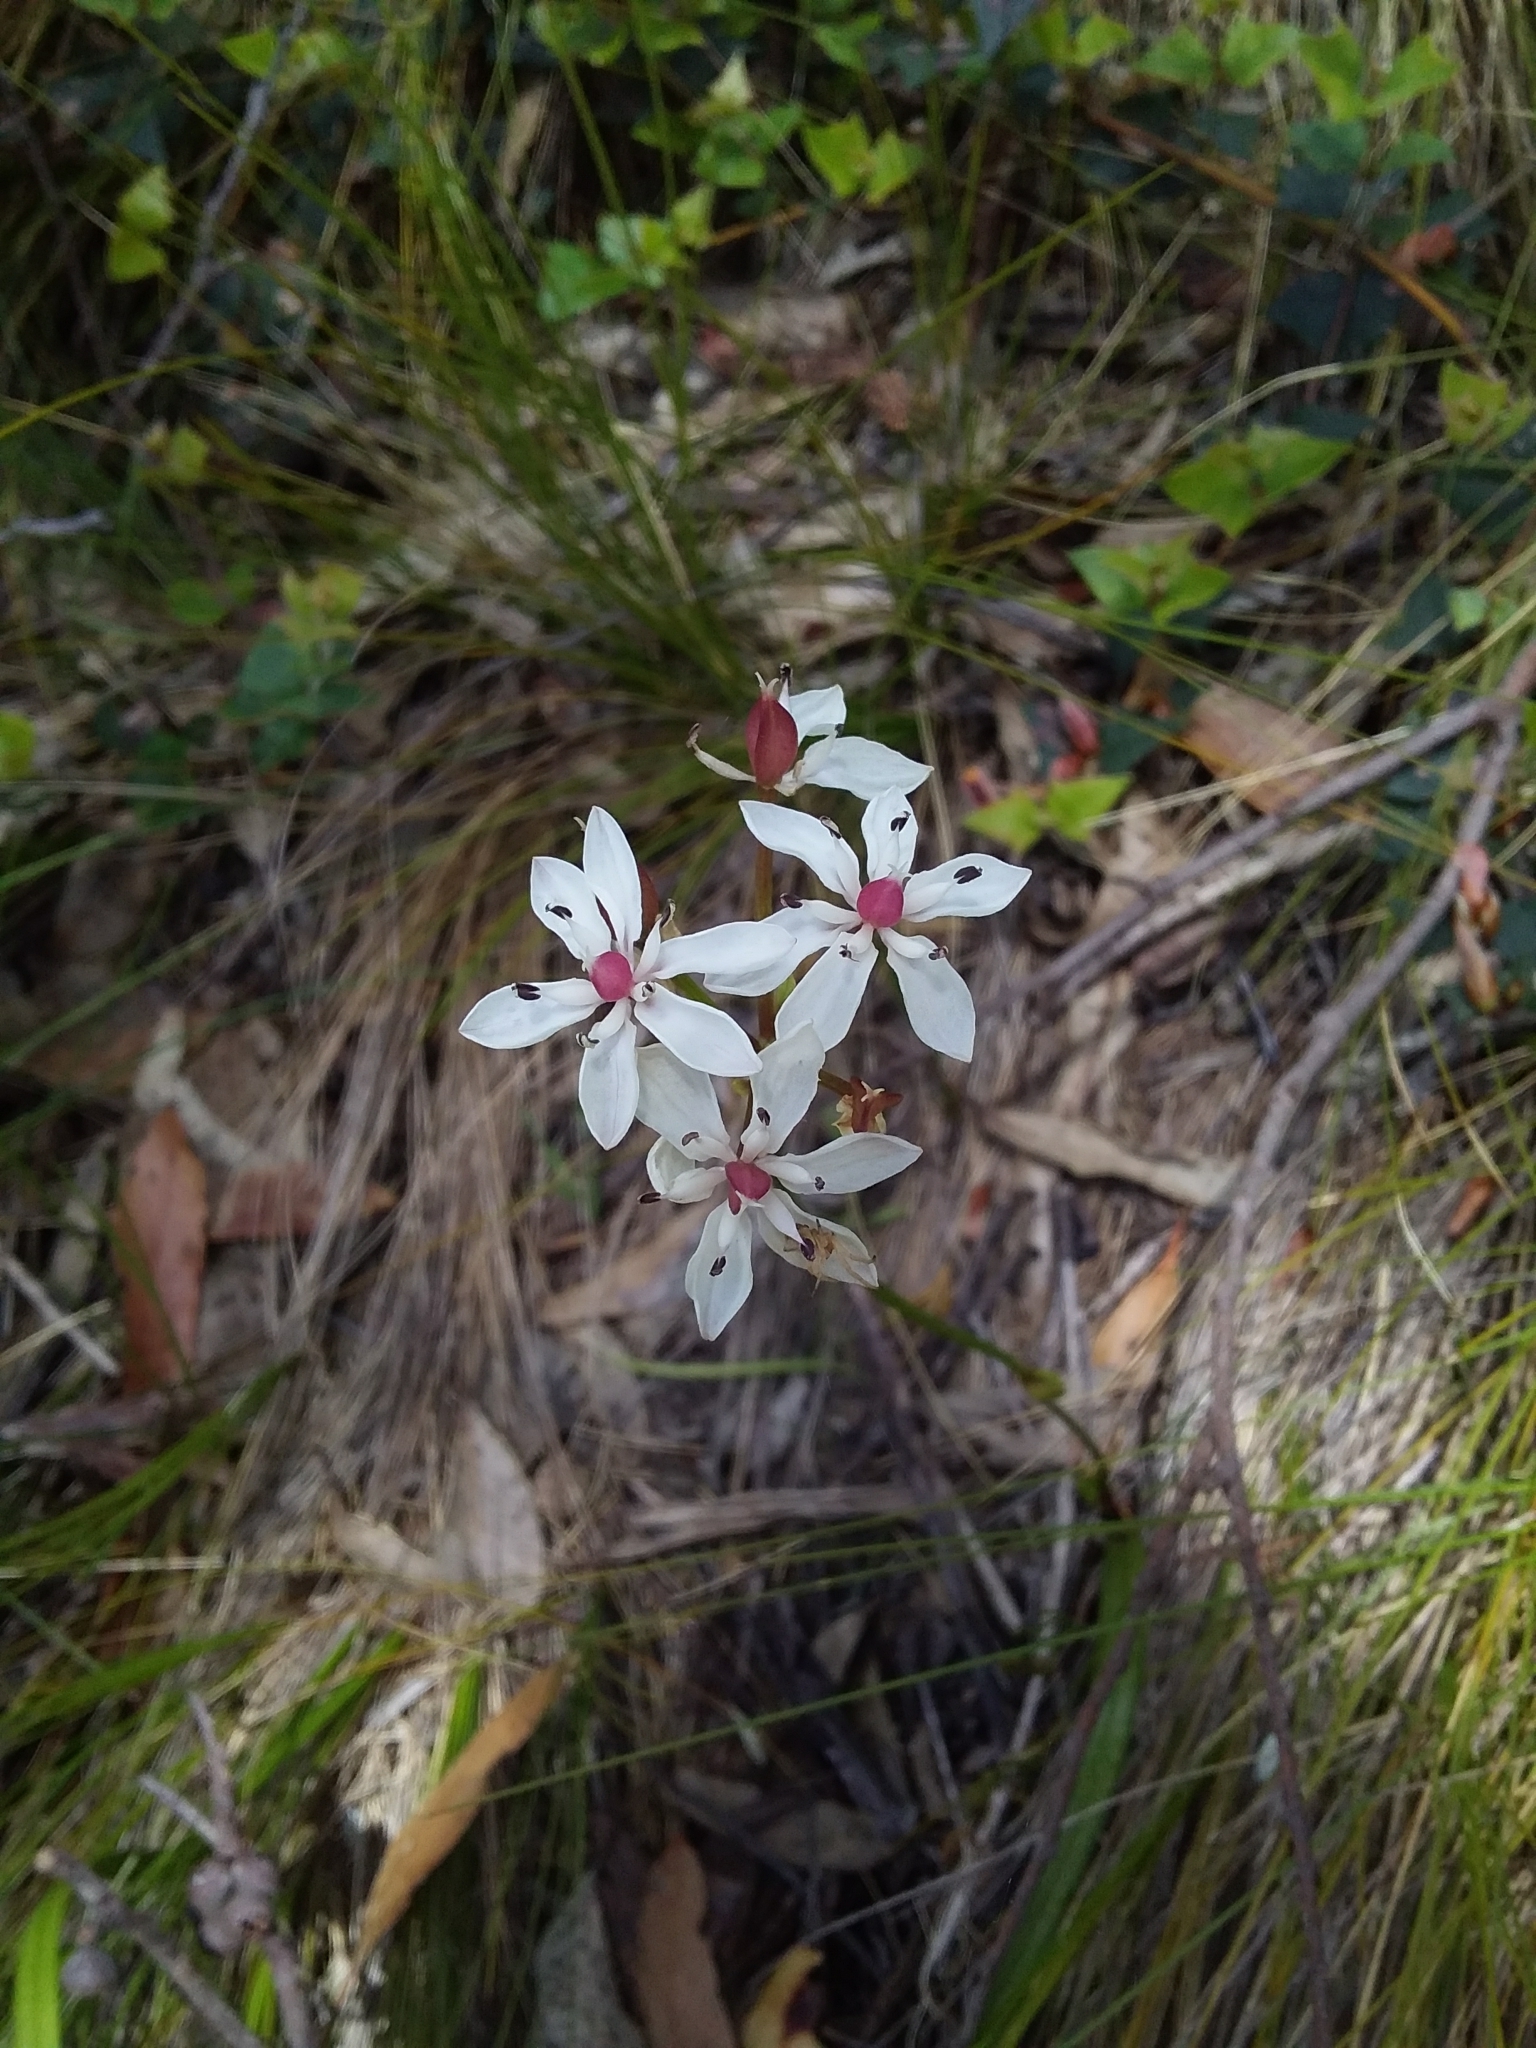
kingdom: Plantae
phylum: Tracheophyta
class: Liliopsida
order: Liliales
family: Colchicaceae
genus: Burchardia
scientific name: Burchardia umbellata
